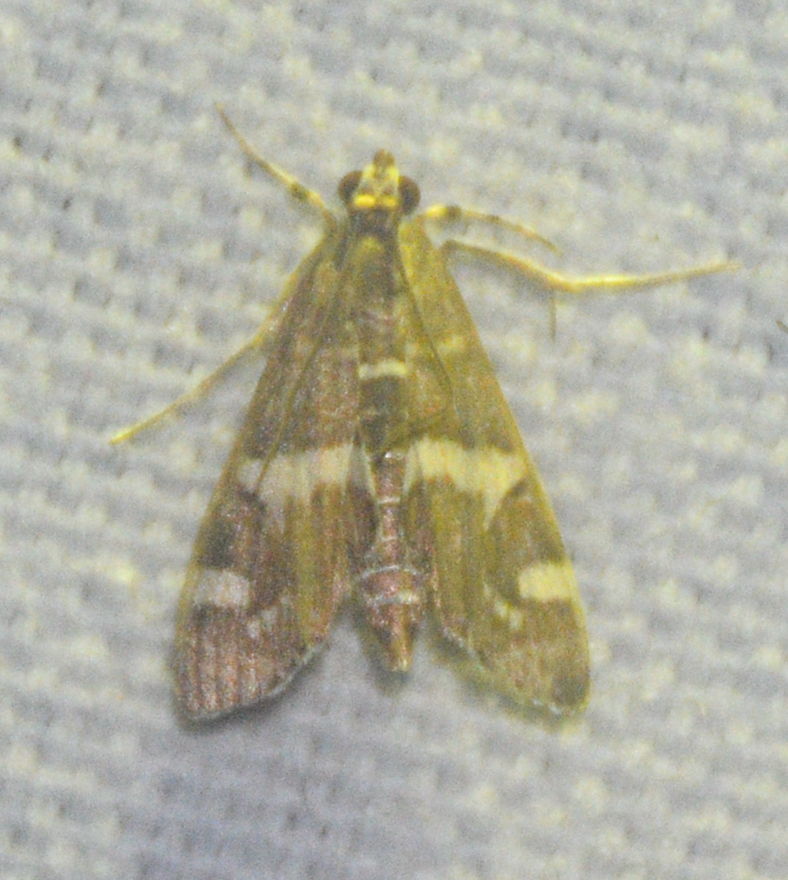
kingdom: Animalia
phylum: Arthropoda
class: Insecta
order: Lepidoptera
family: Crambidae
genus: Spoladea
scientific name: Spoladea recurvalis
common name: Beet webworm moth
